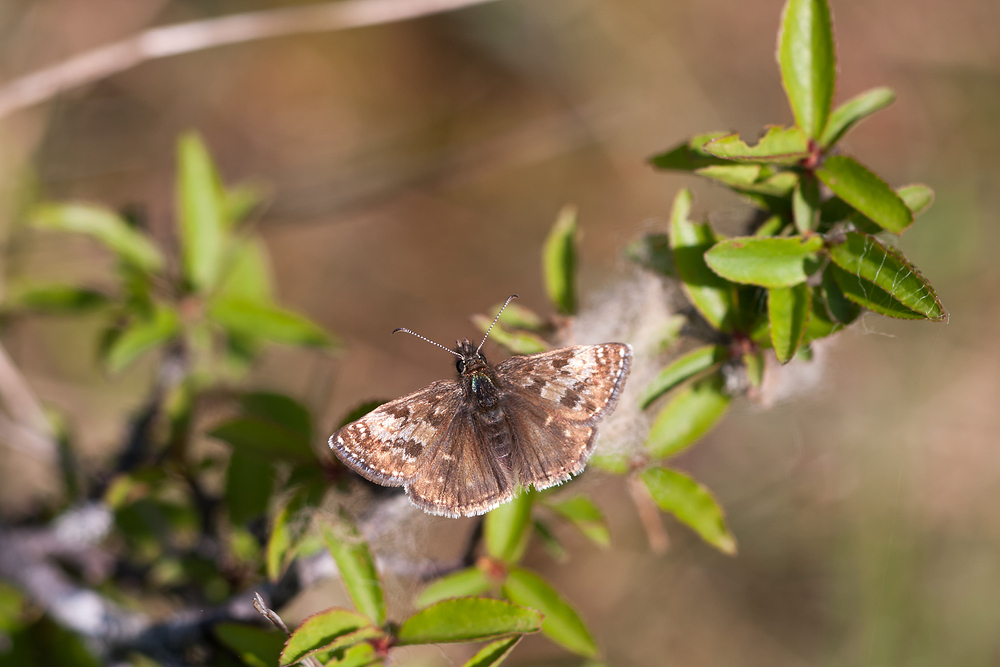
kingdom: Animalia
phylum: Arthropoda
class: Insecta
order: Lepidoptera
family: Hesperiidae
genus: Erynnis
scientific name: Erynnis tages
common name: Dingy skipper
